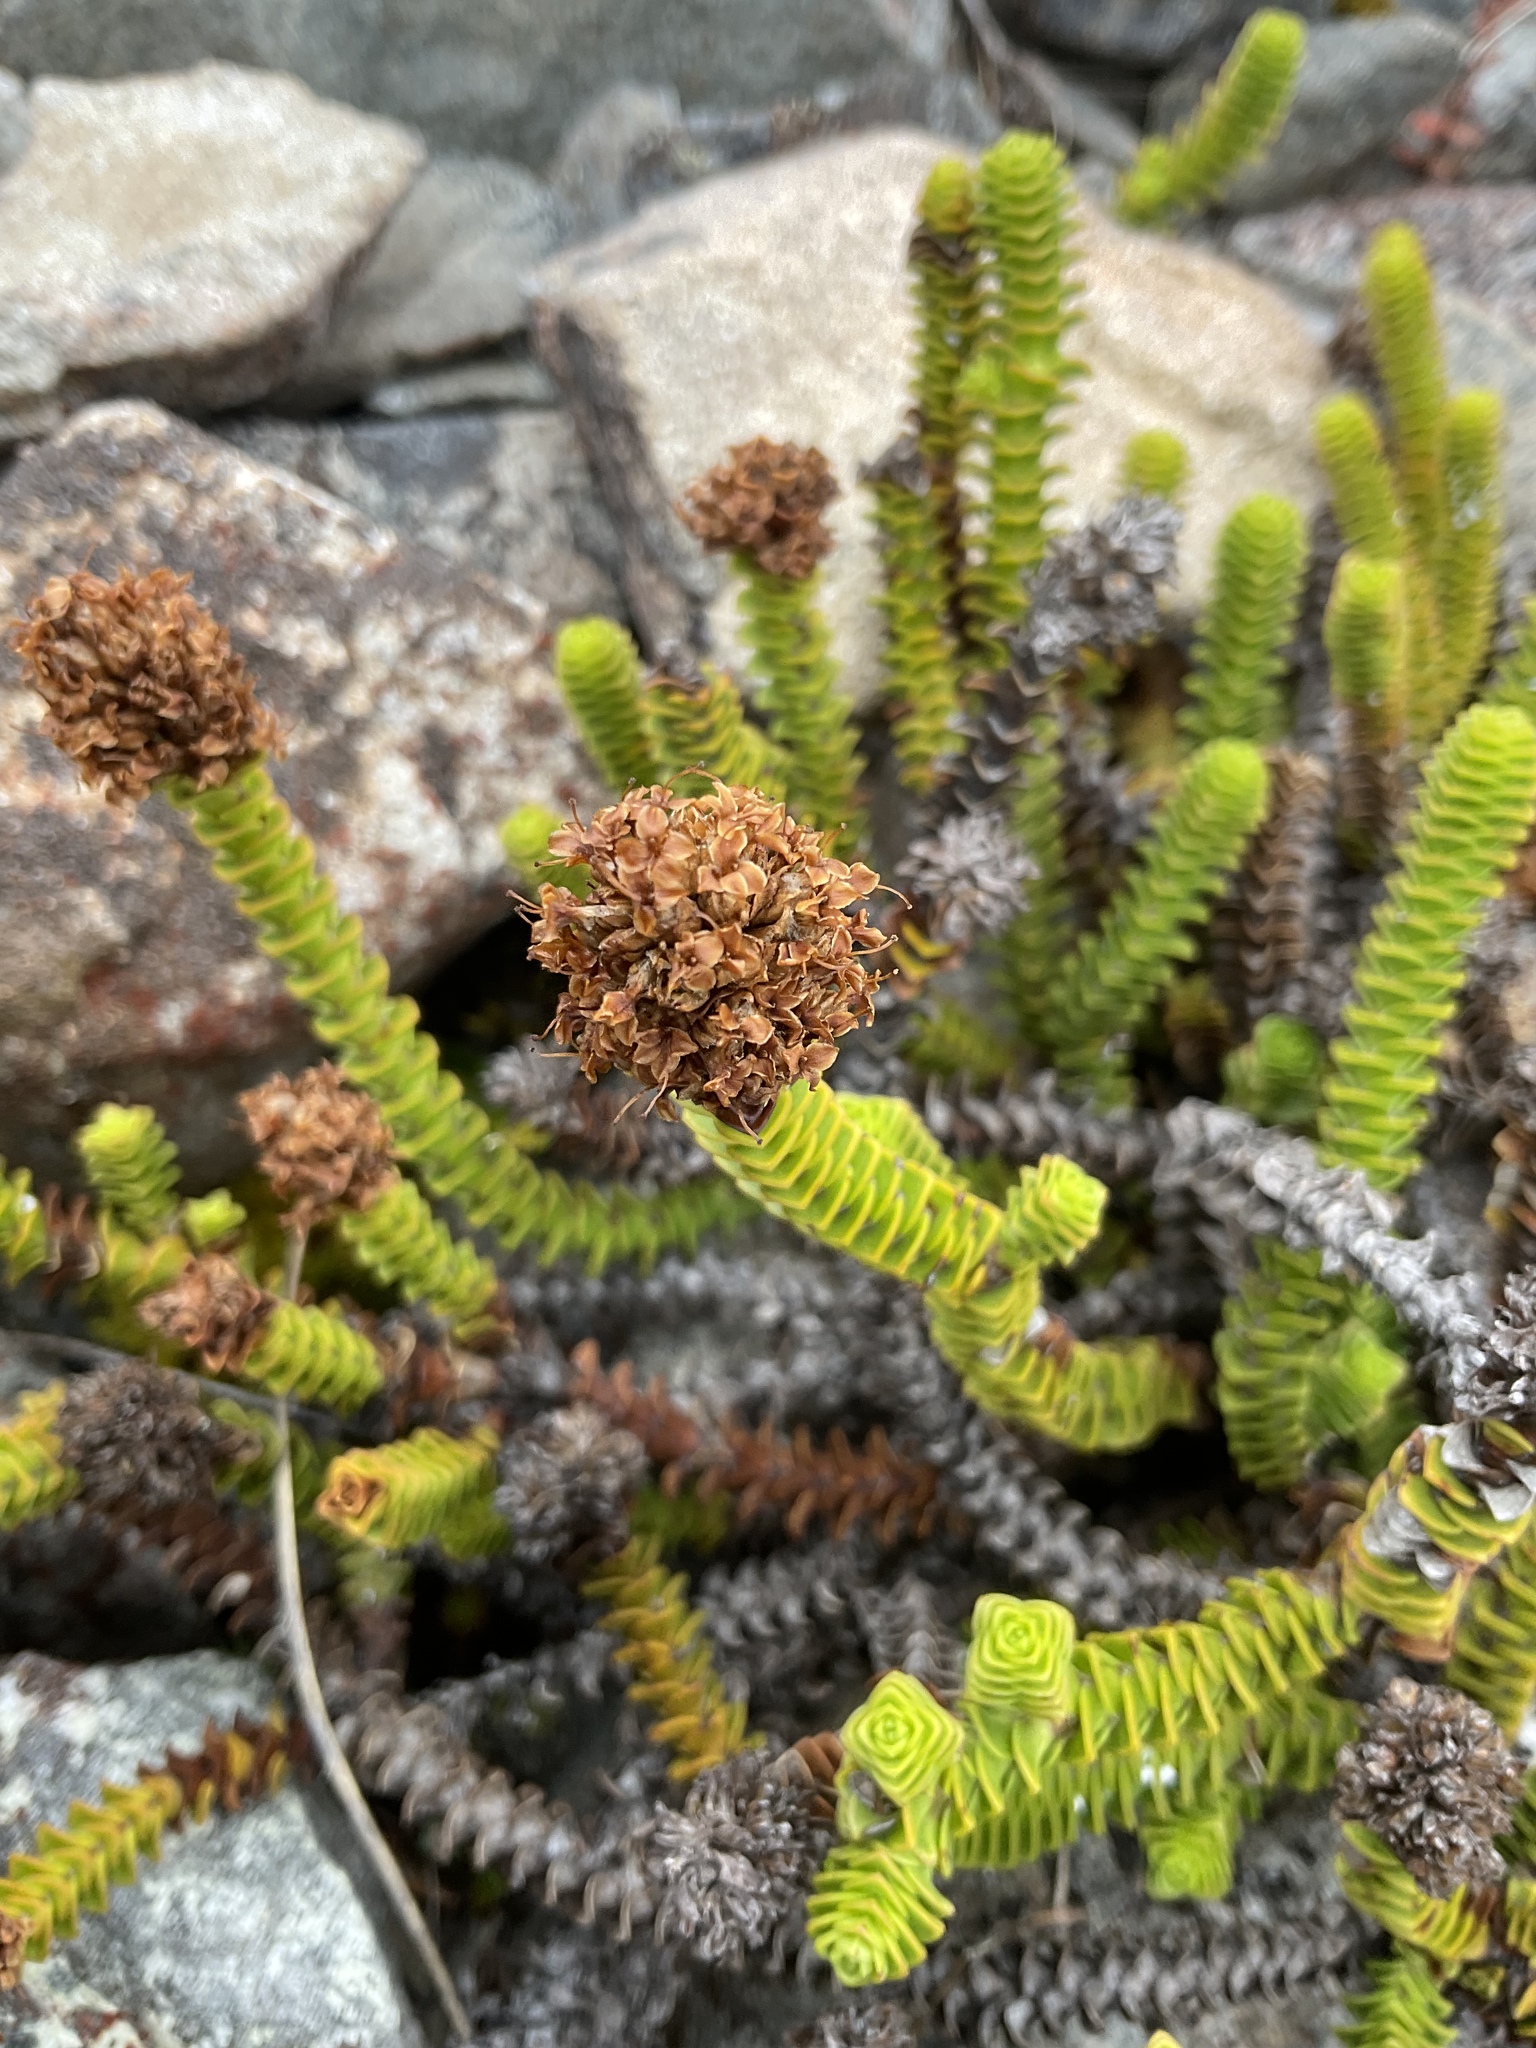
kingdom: Plantae
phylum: Tracheophyta
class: Magnoliopsida
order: Lamiales
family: Plantaginaceae
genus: Veronica
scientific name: Veronica epacridea
